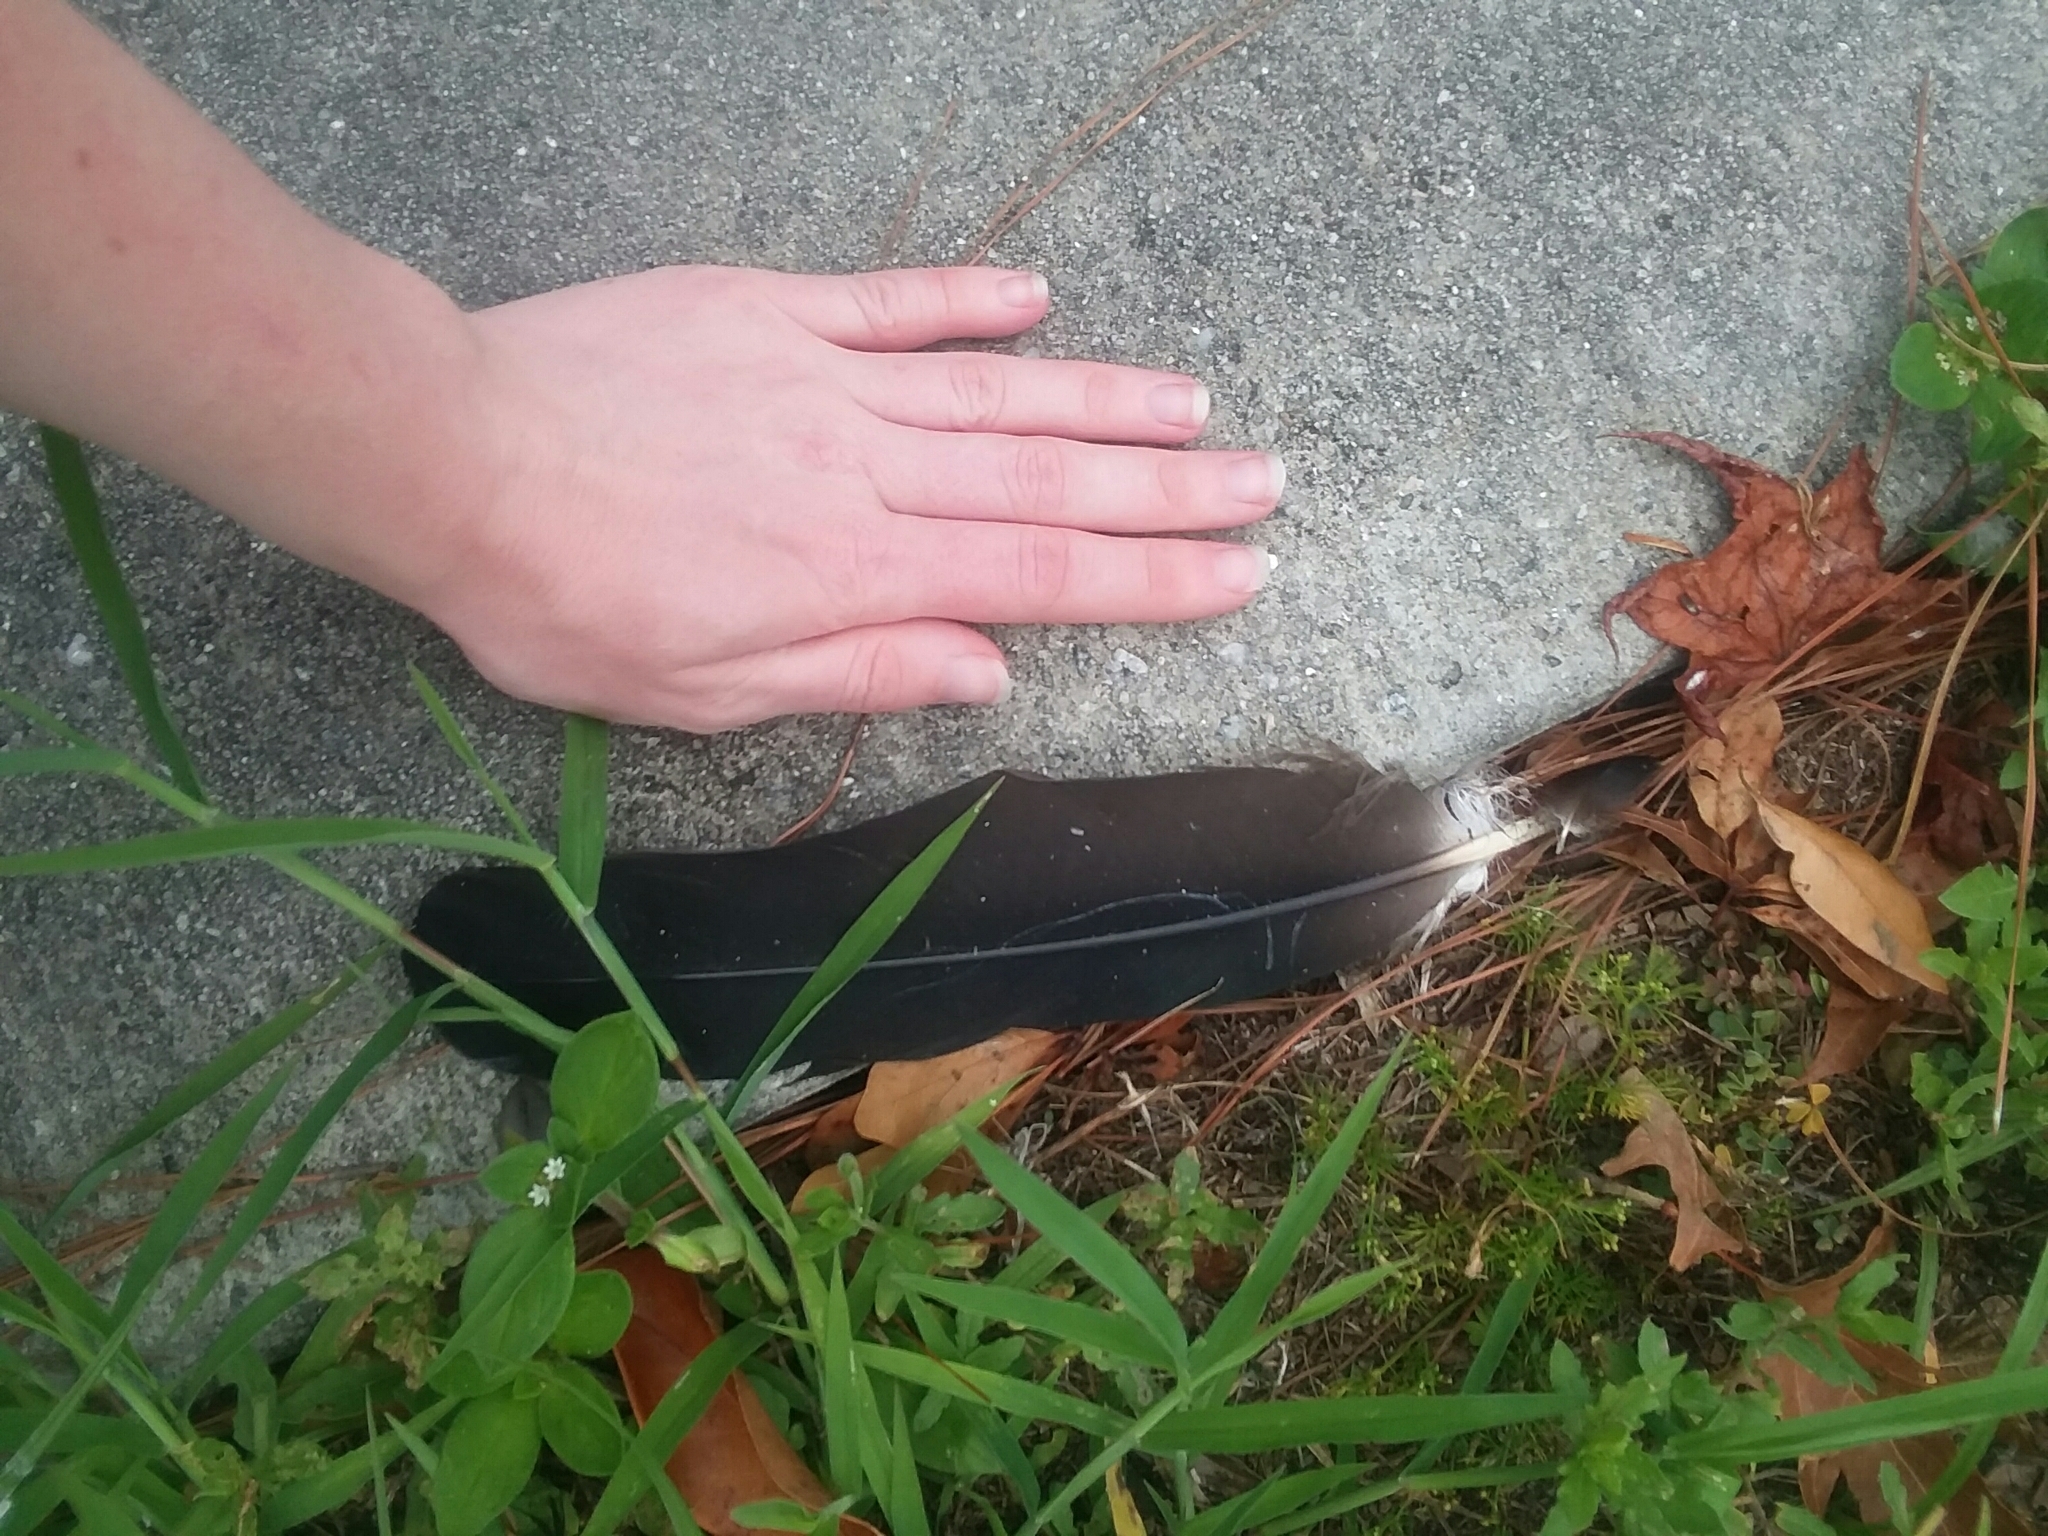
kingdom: Animalia
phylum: Chordata
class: Aves
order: Accipitriformes
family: Cathartidae
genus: Coragyps
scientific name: Coragyps atratus
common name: Black vulture
